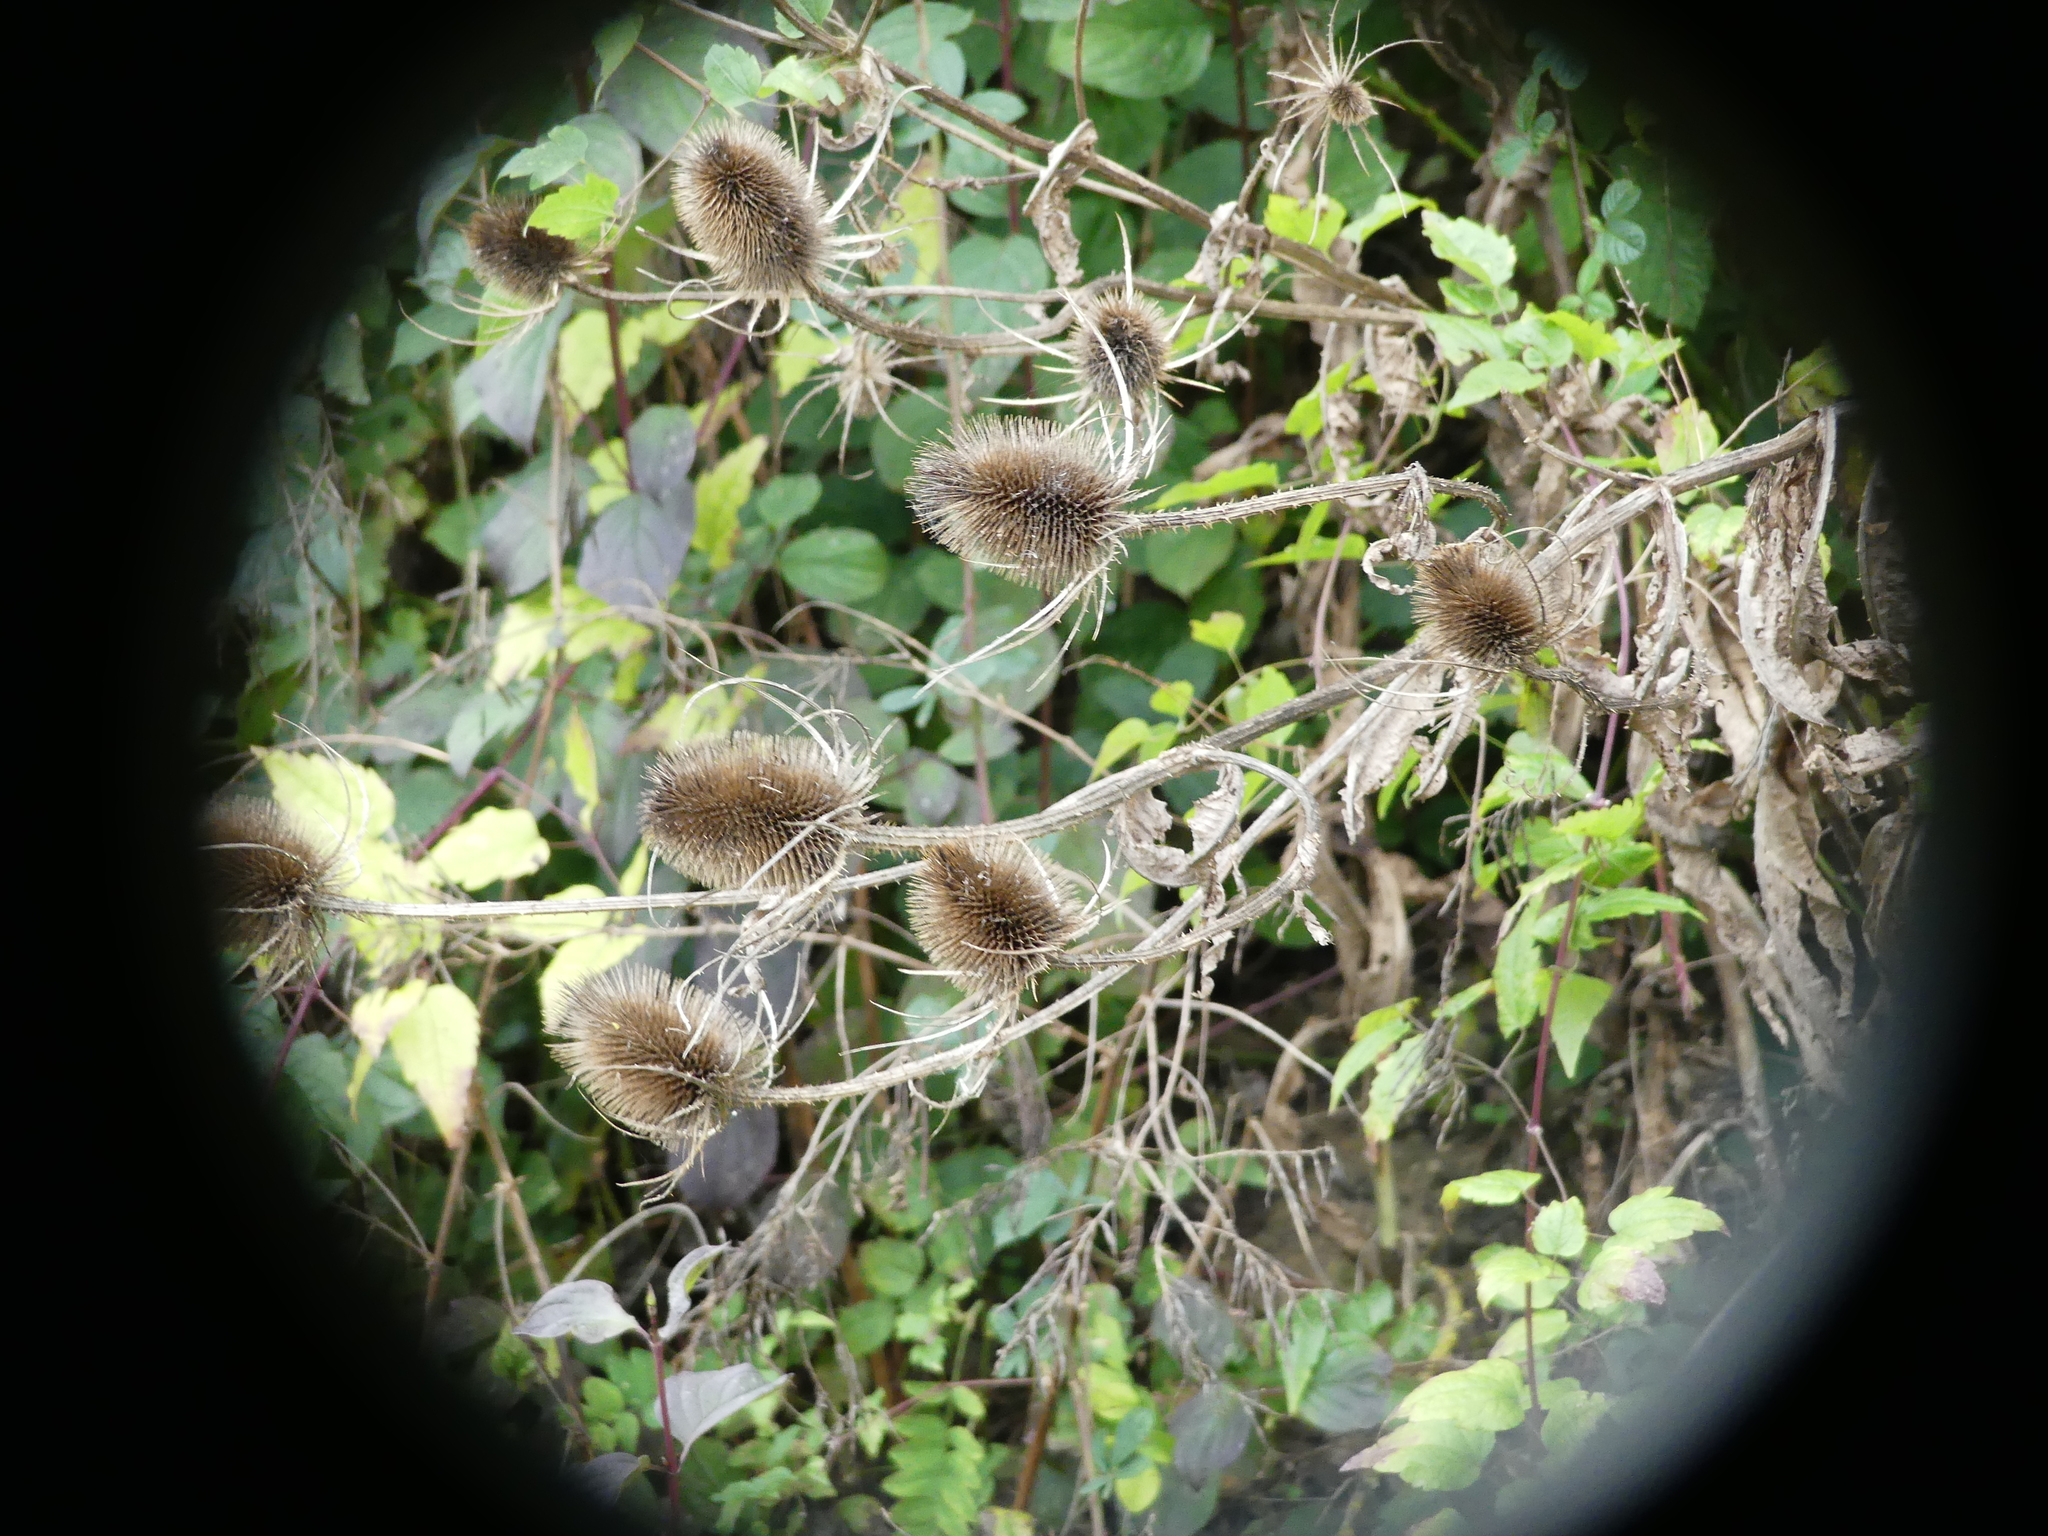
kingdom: Plantae
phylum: Tracheophyta
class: Magnoliopsida
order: Dipsacales
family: Caprifoliaceae
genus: Dipsacus
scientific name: Dipsacus fullonum
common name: Teasel
